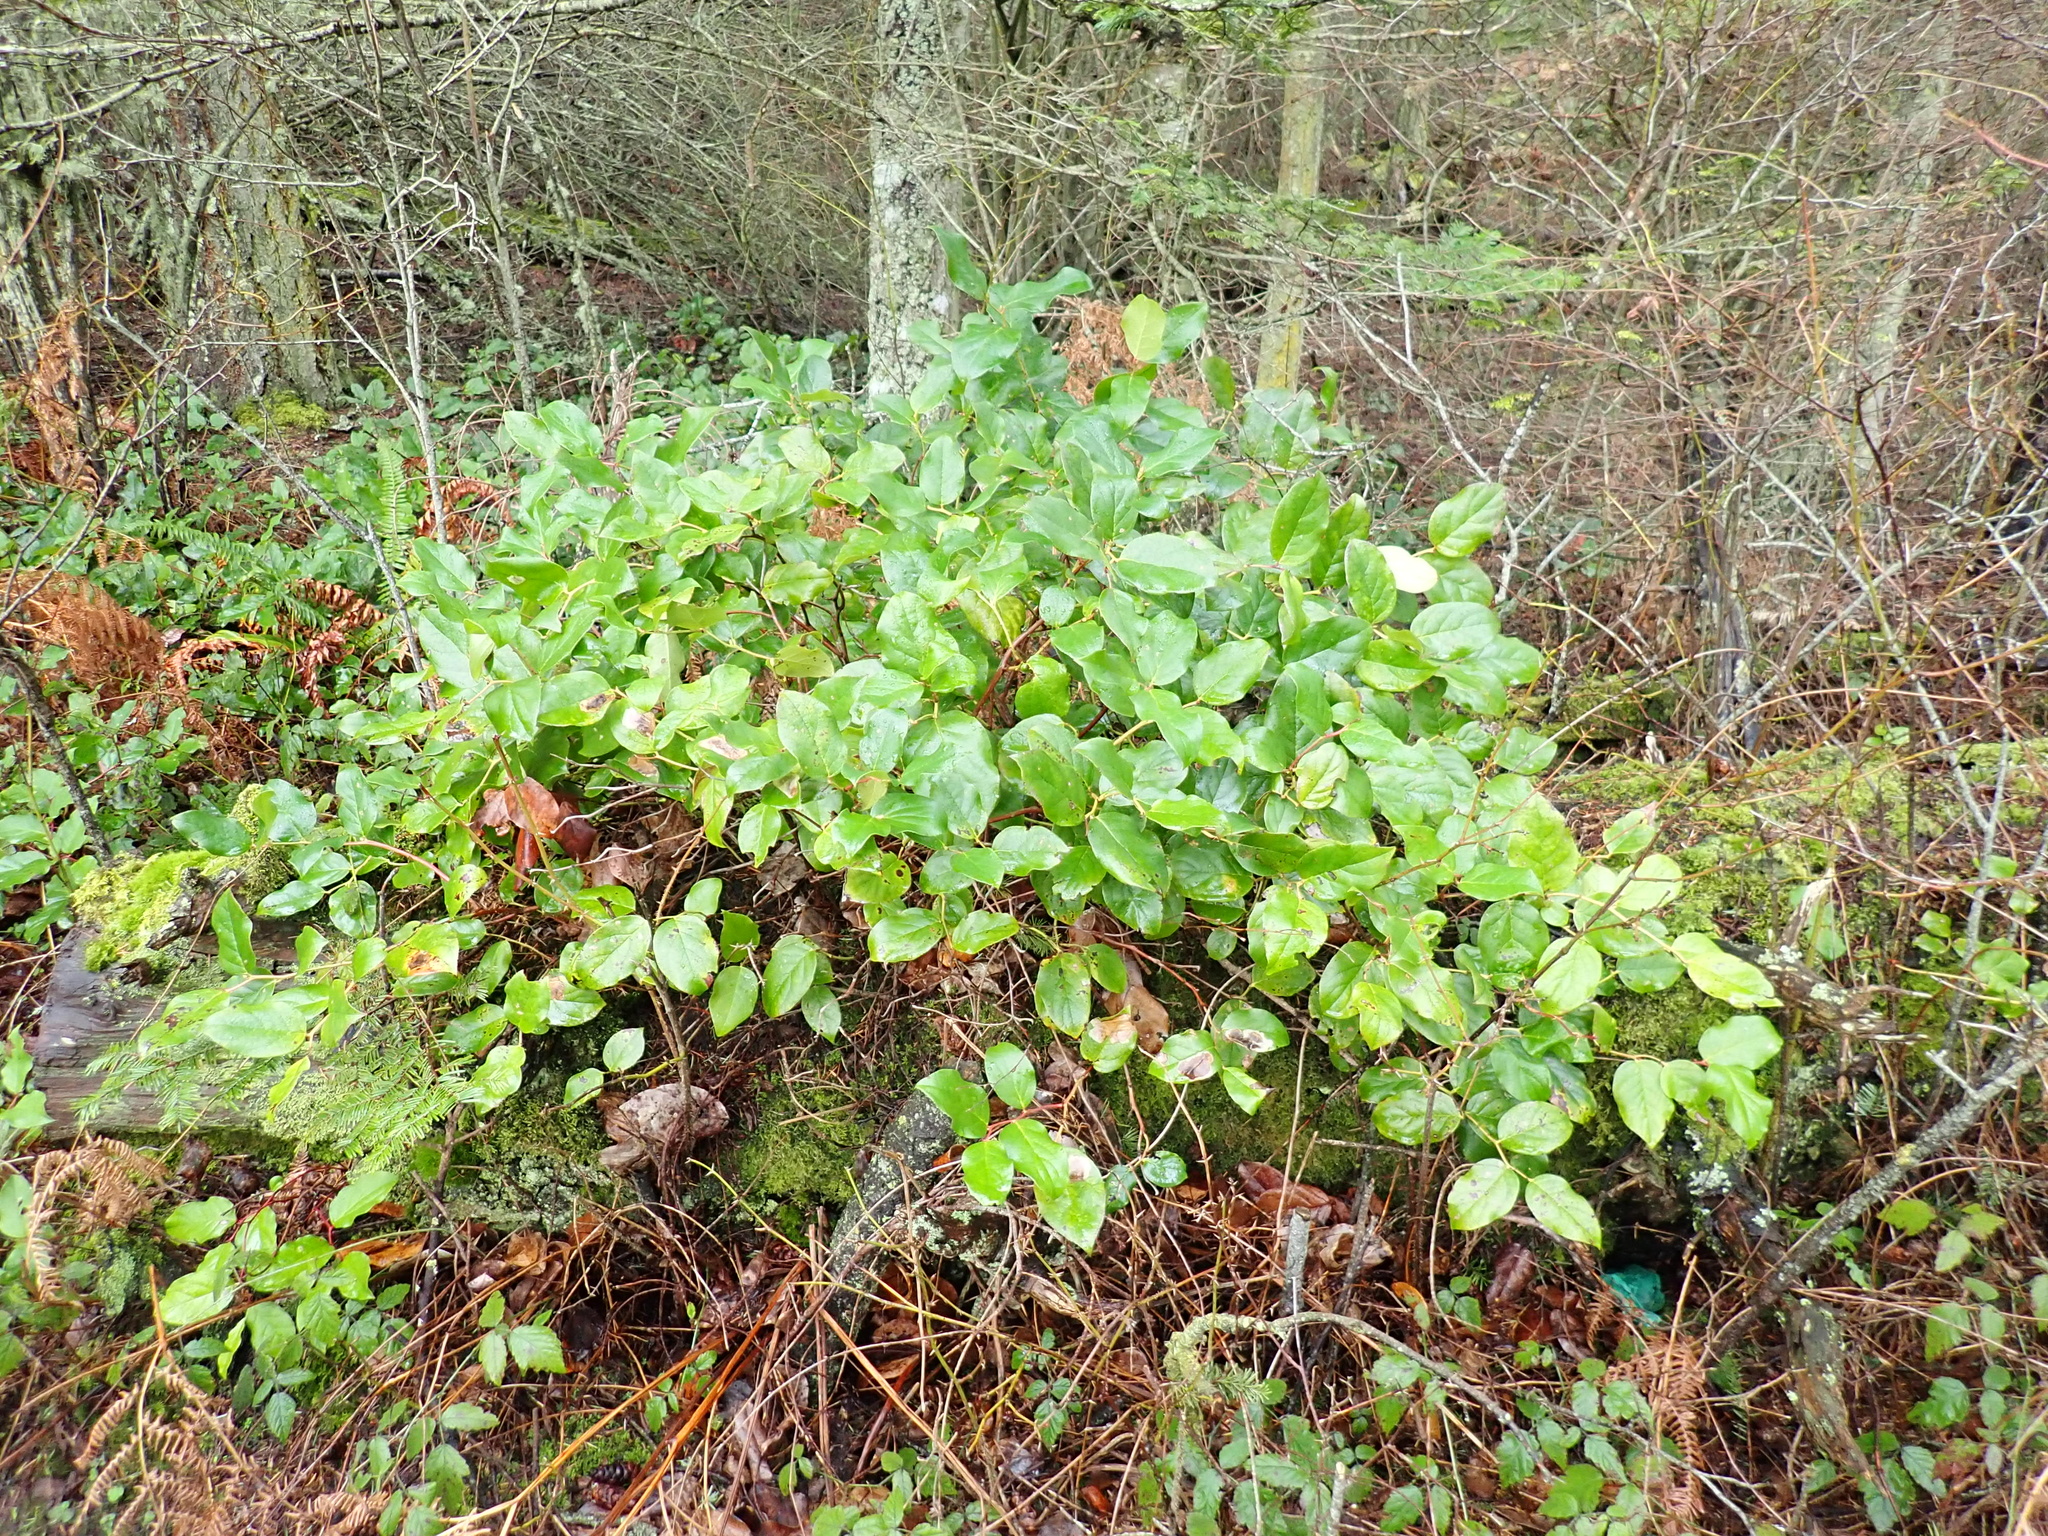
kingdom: Plantae
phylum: Tracheophyta
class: Magnoliopsida
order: Ericales
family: Ericaceae
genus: Gaultheria
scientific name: Gaultheria shallon
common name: Shallon
